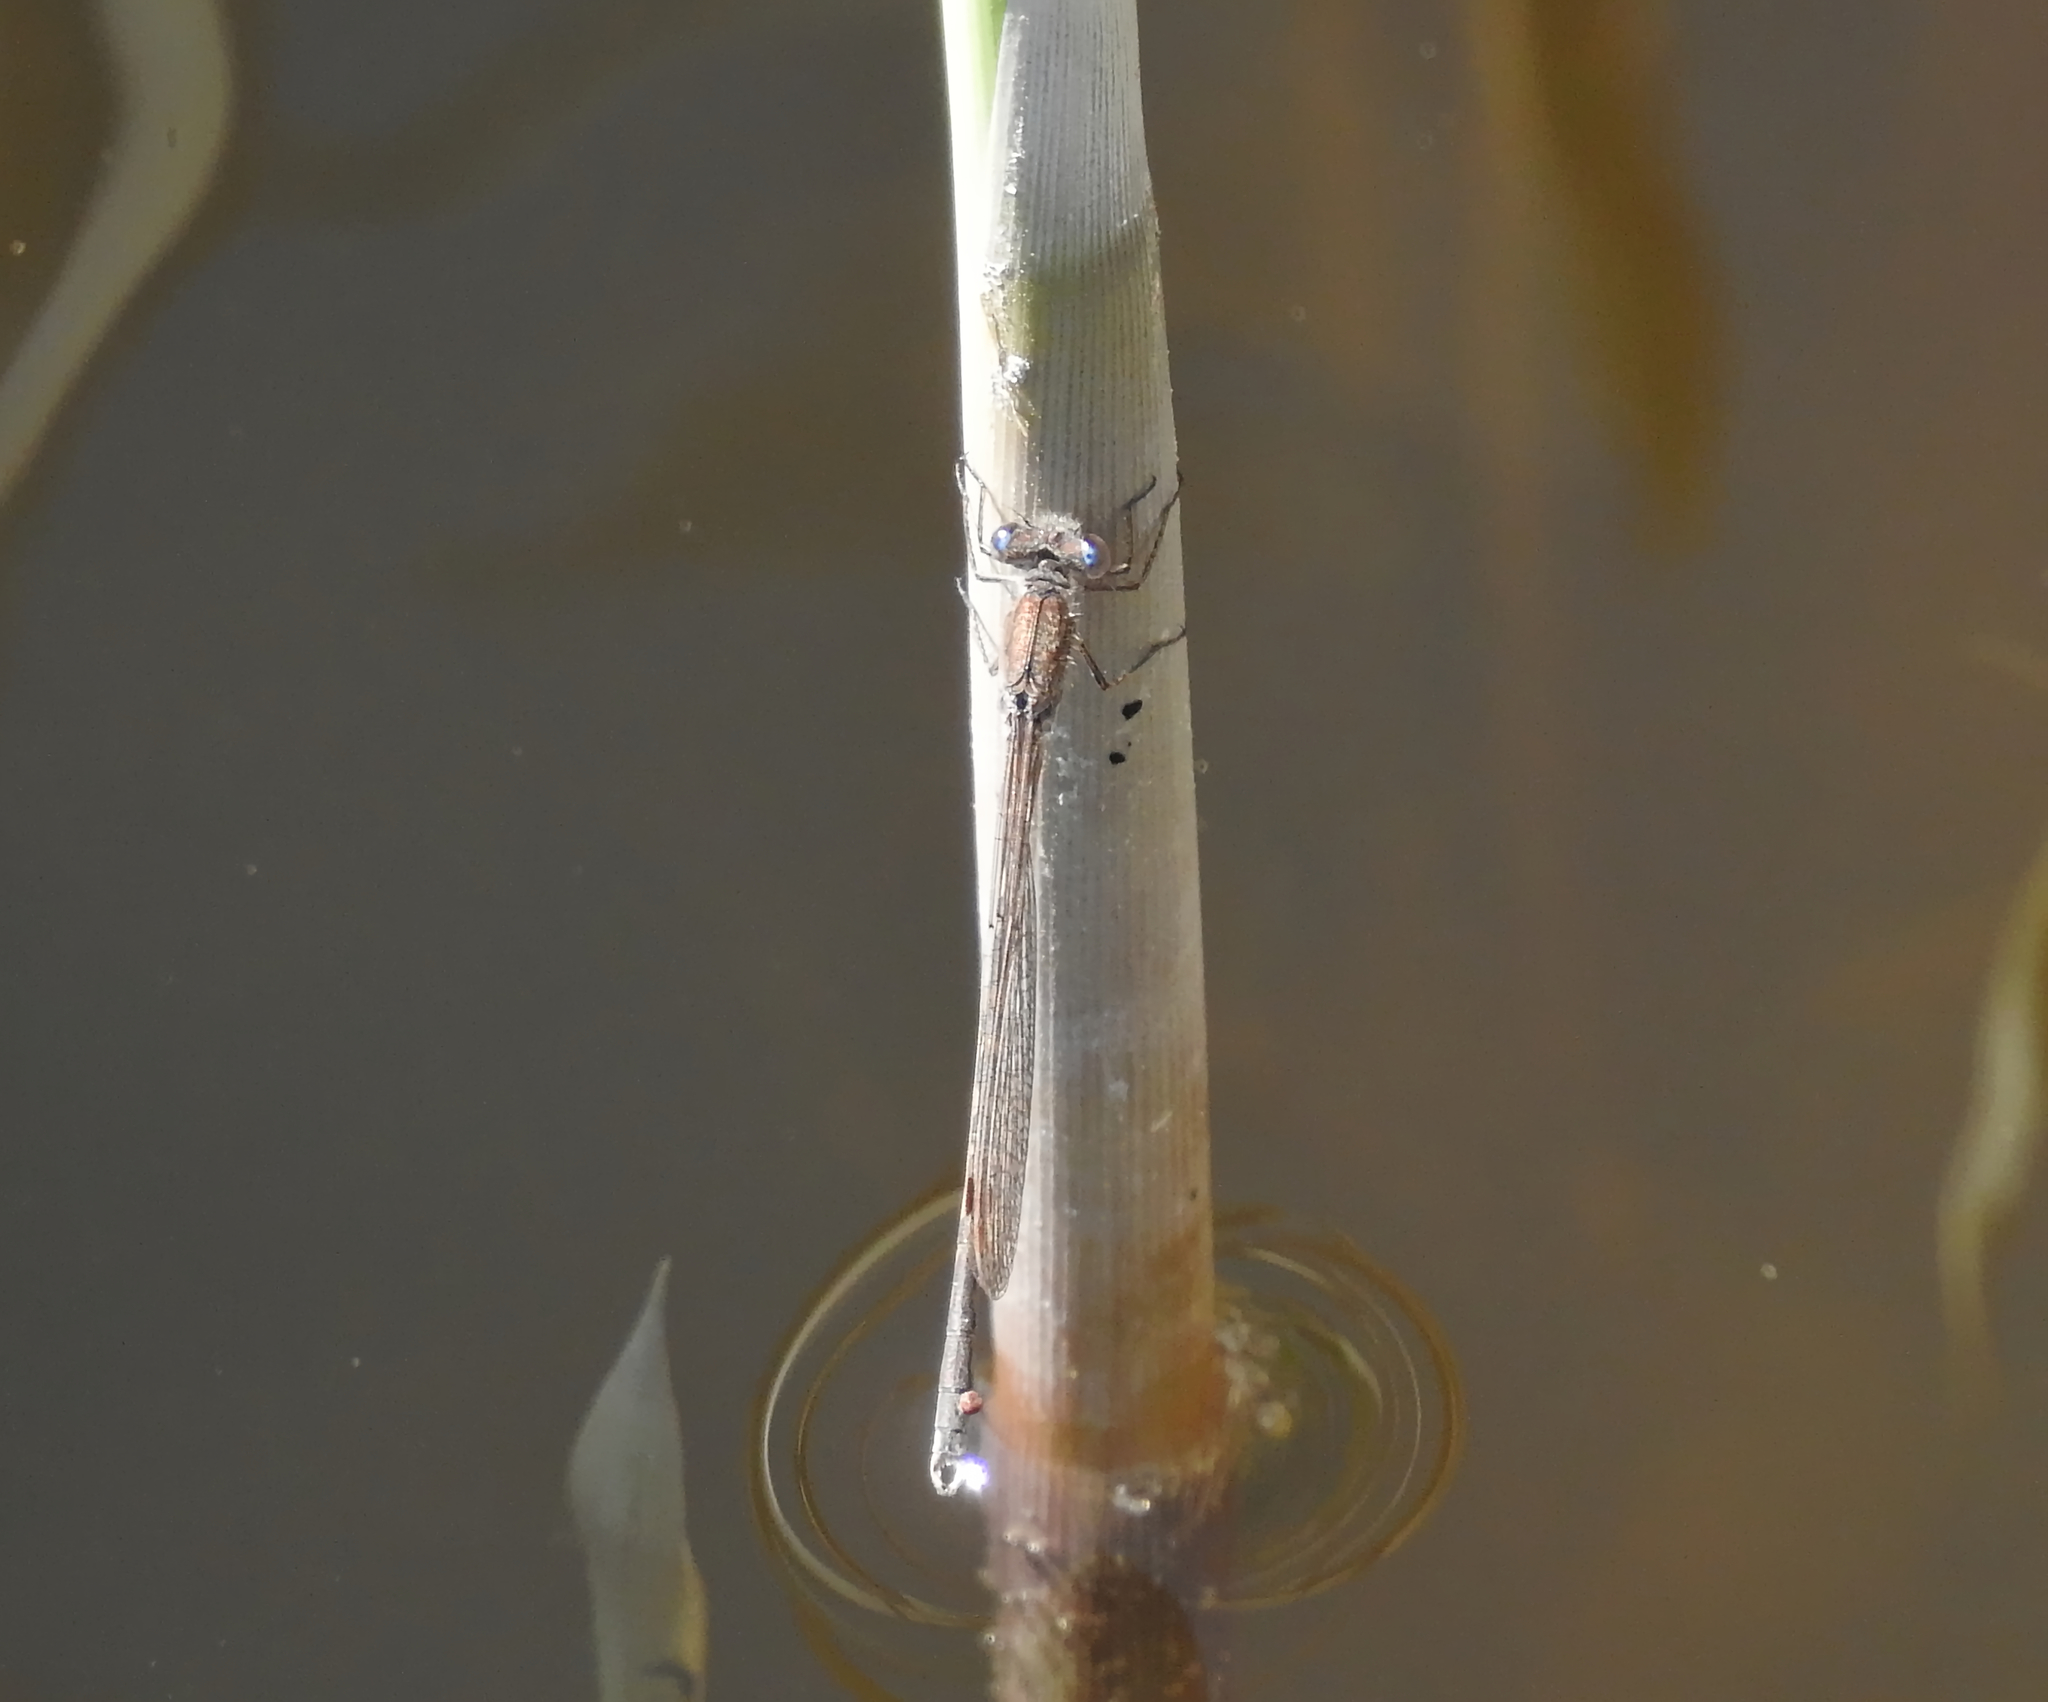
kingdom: Animalia
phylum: Arthropoda
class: Insecta
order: Odonata
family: Lestidae
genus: Sympecma
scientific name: Sympecma paedisca
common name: Siberian winter damsel
